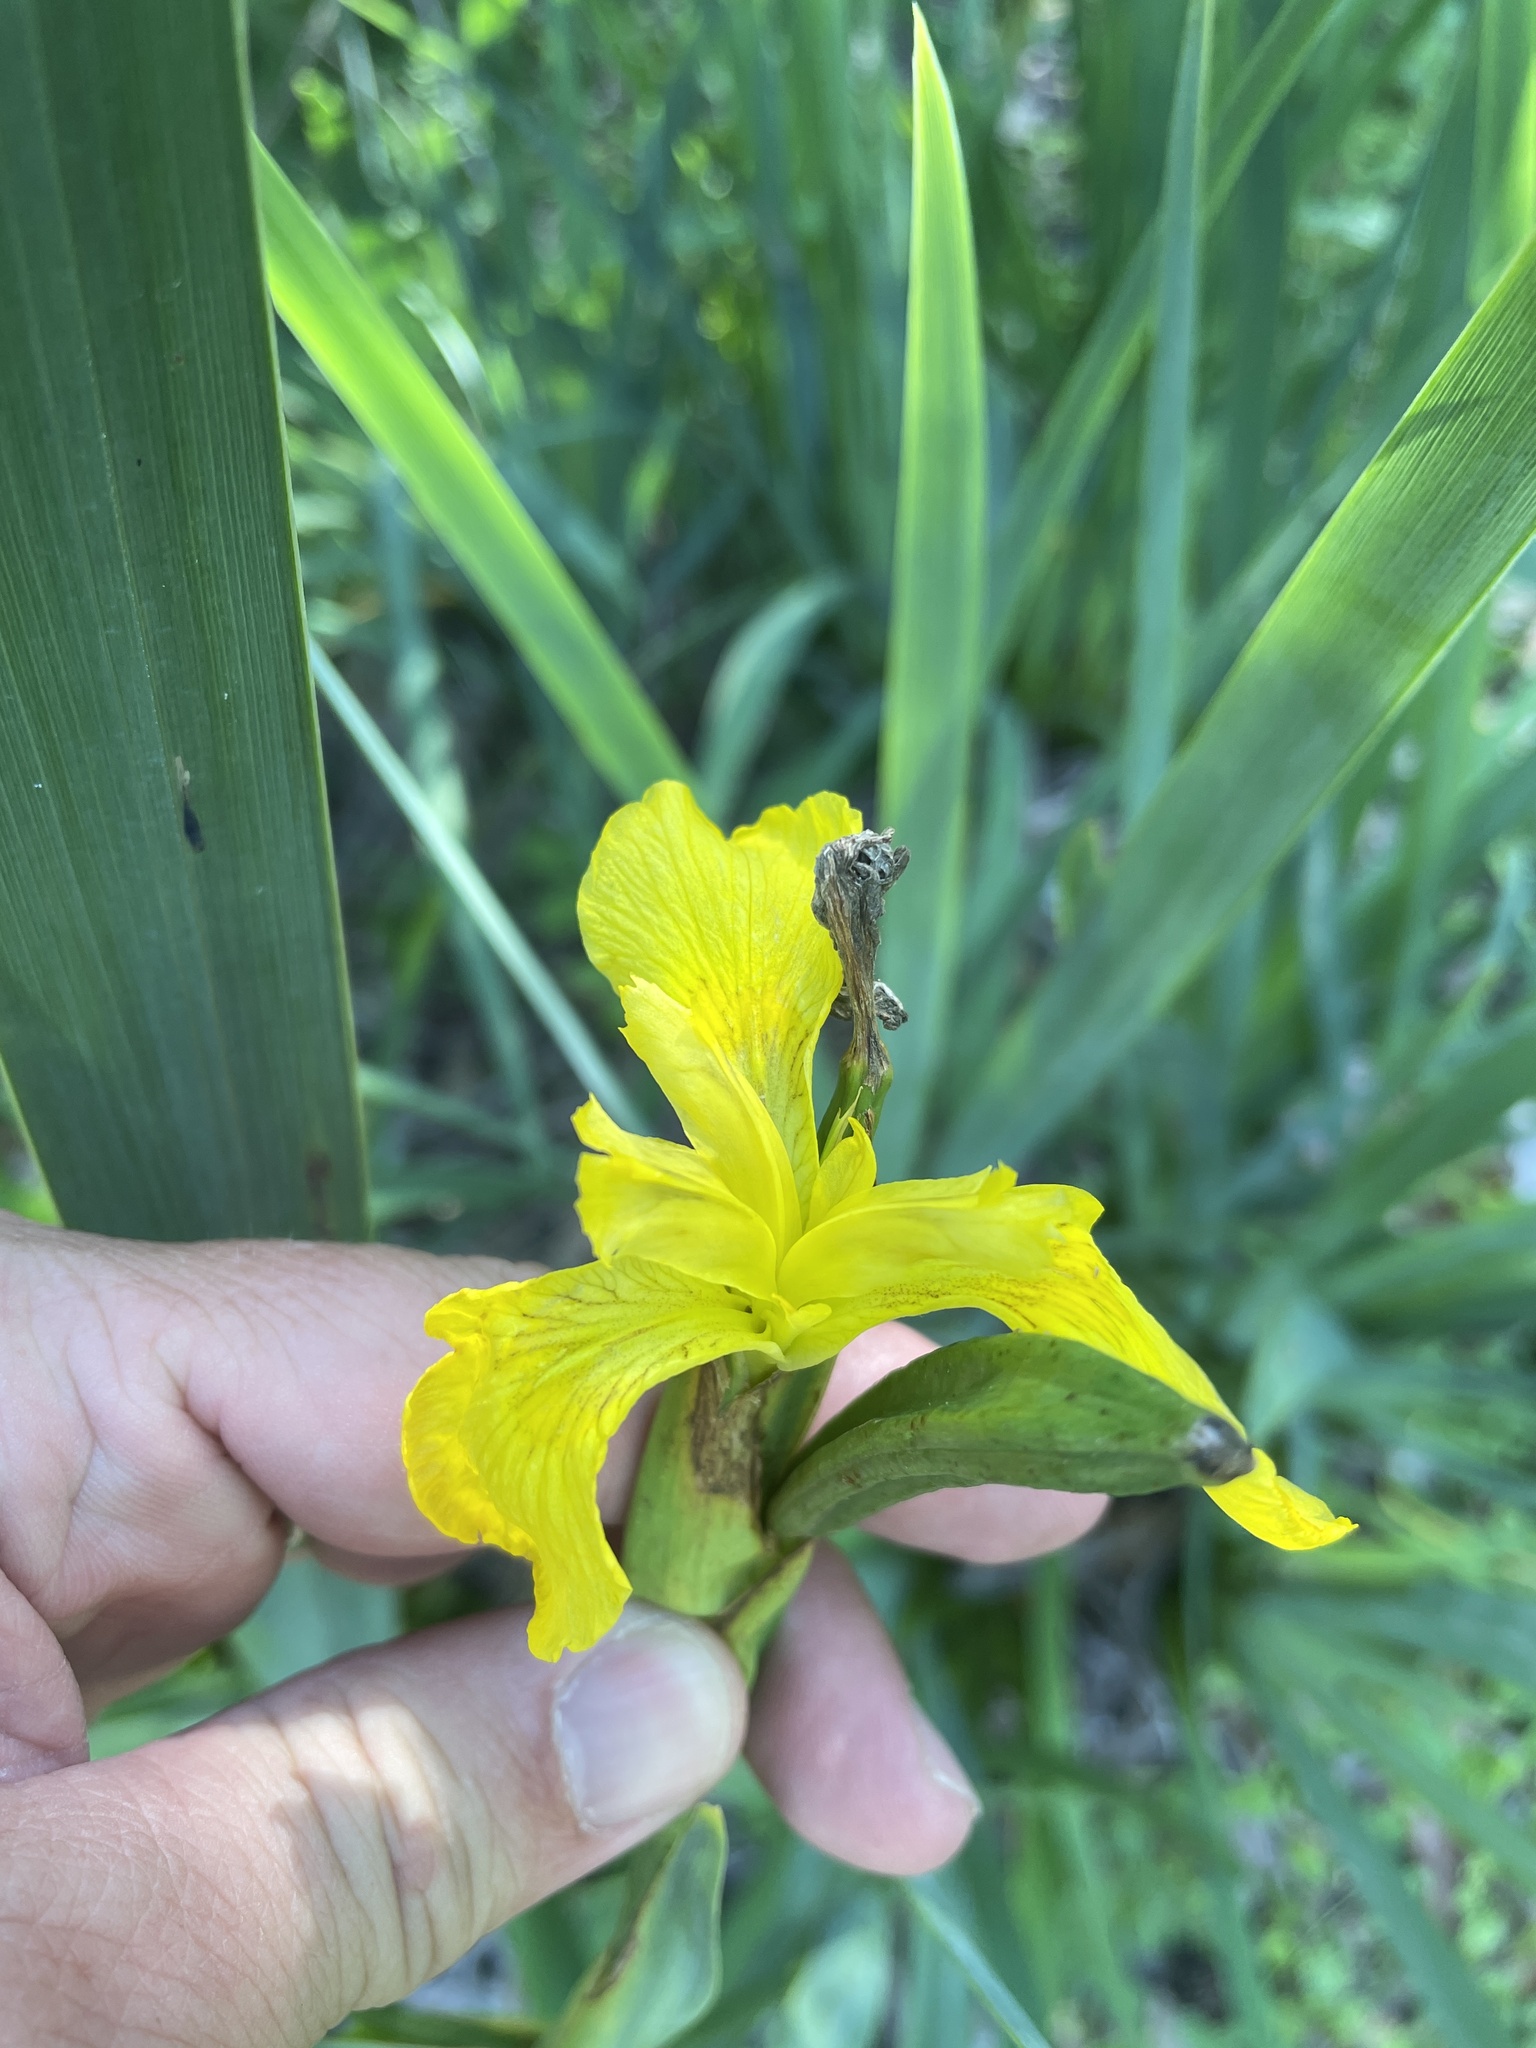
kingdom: Plantae
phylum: Tracheophyta
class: Liliopsida
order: Asparagales
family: Iridaceae
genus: Iris
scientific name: Iris pseudacorus
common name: Yellow flag
